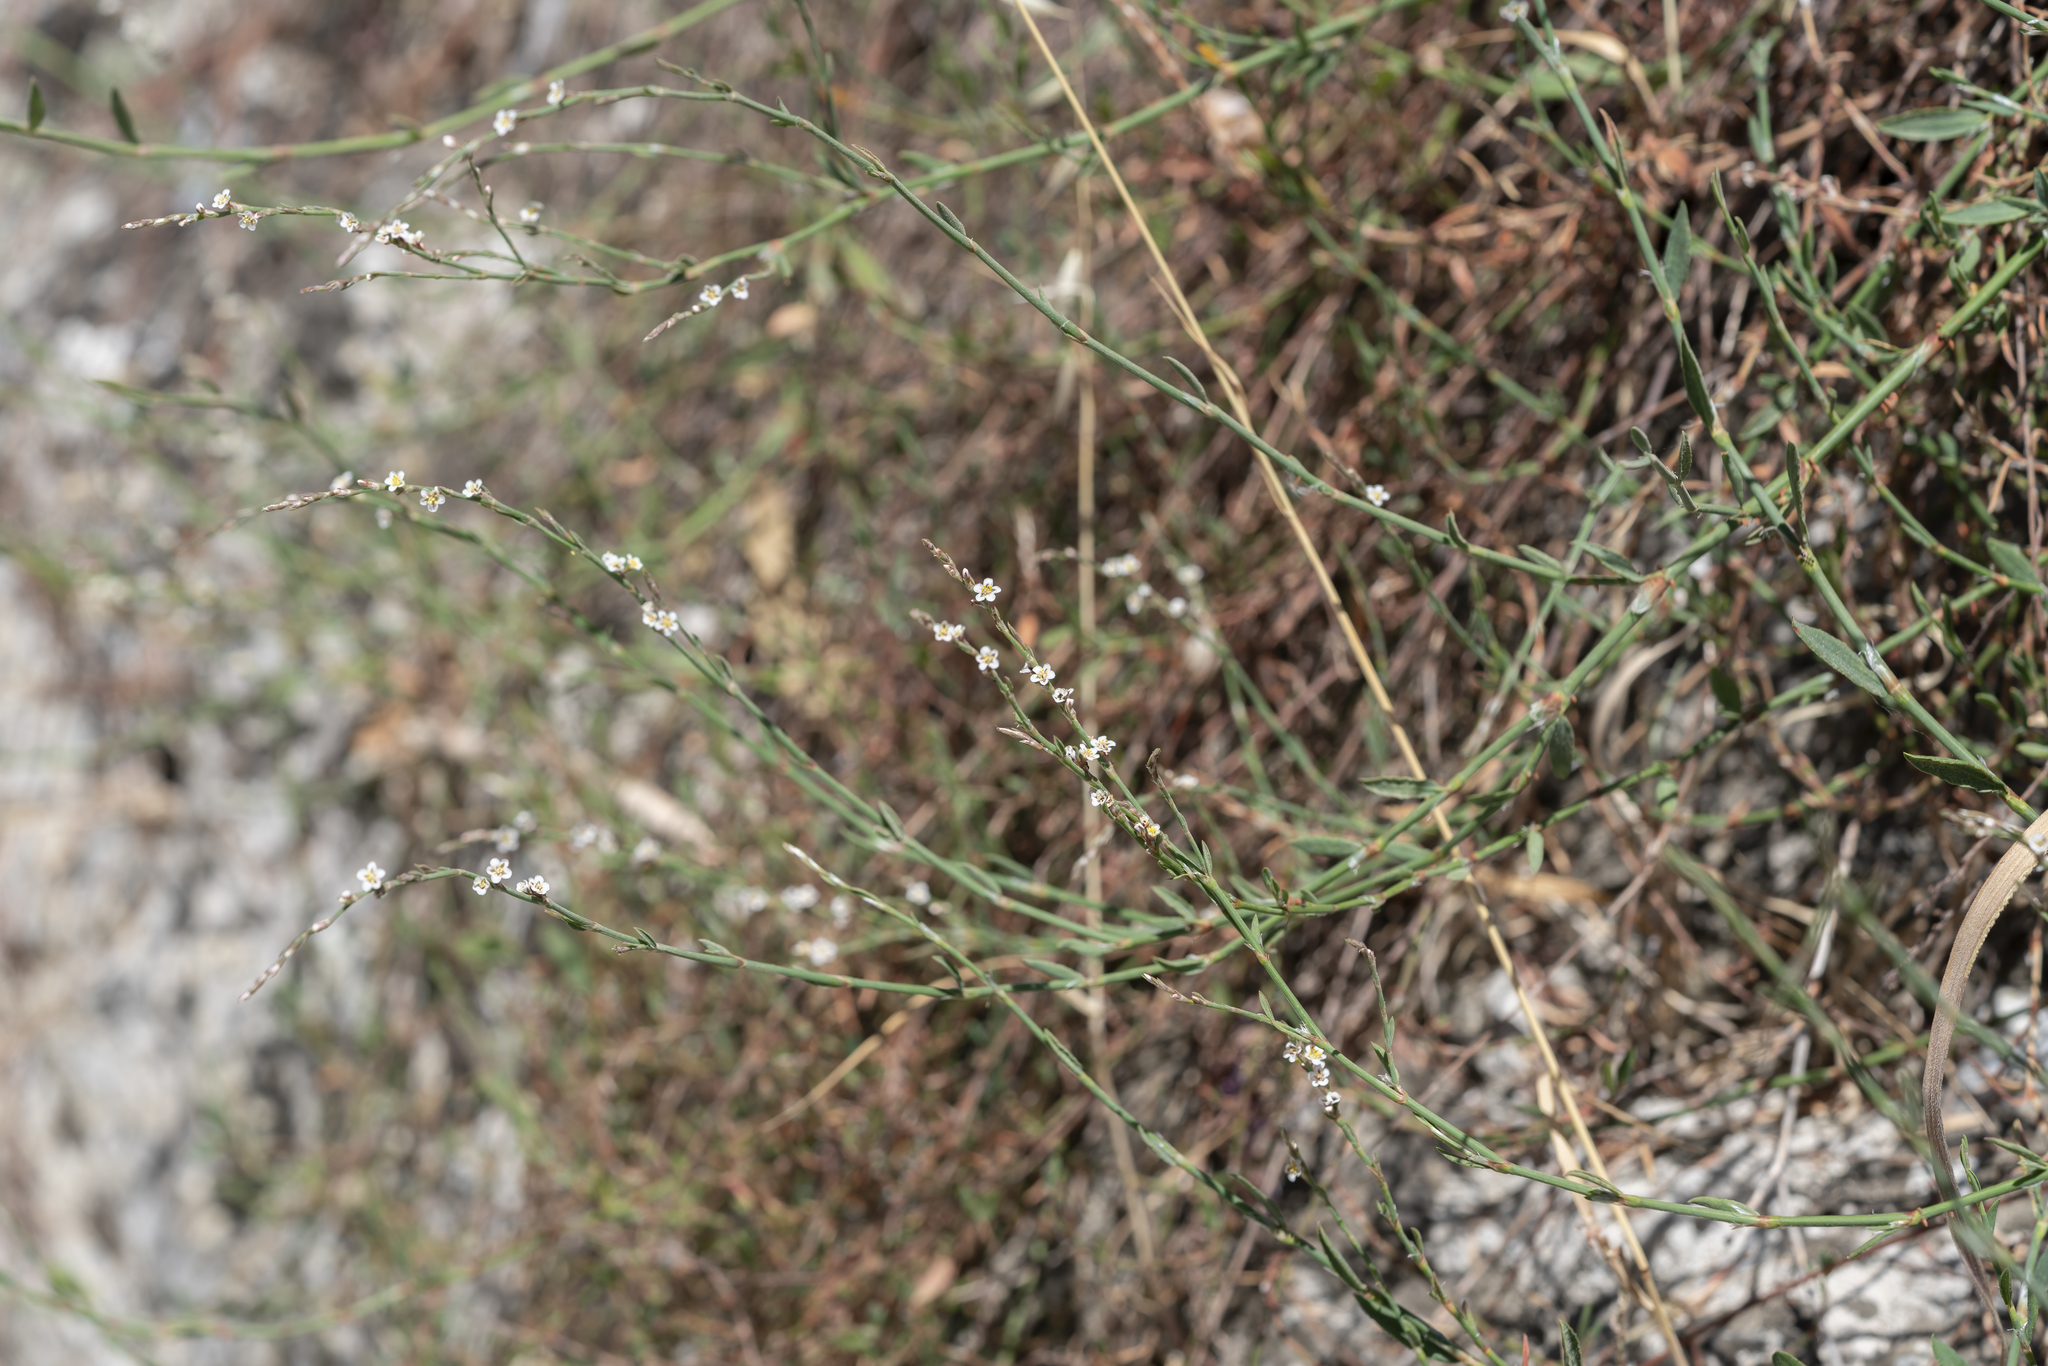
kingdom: Plantae
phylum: Tracheophyta
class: Magnoliopsida
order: Caryophyllales
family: Polygonaceae
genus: Polygonum
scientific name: Polygonum equisetiforme
